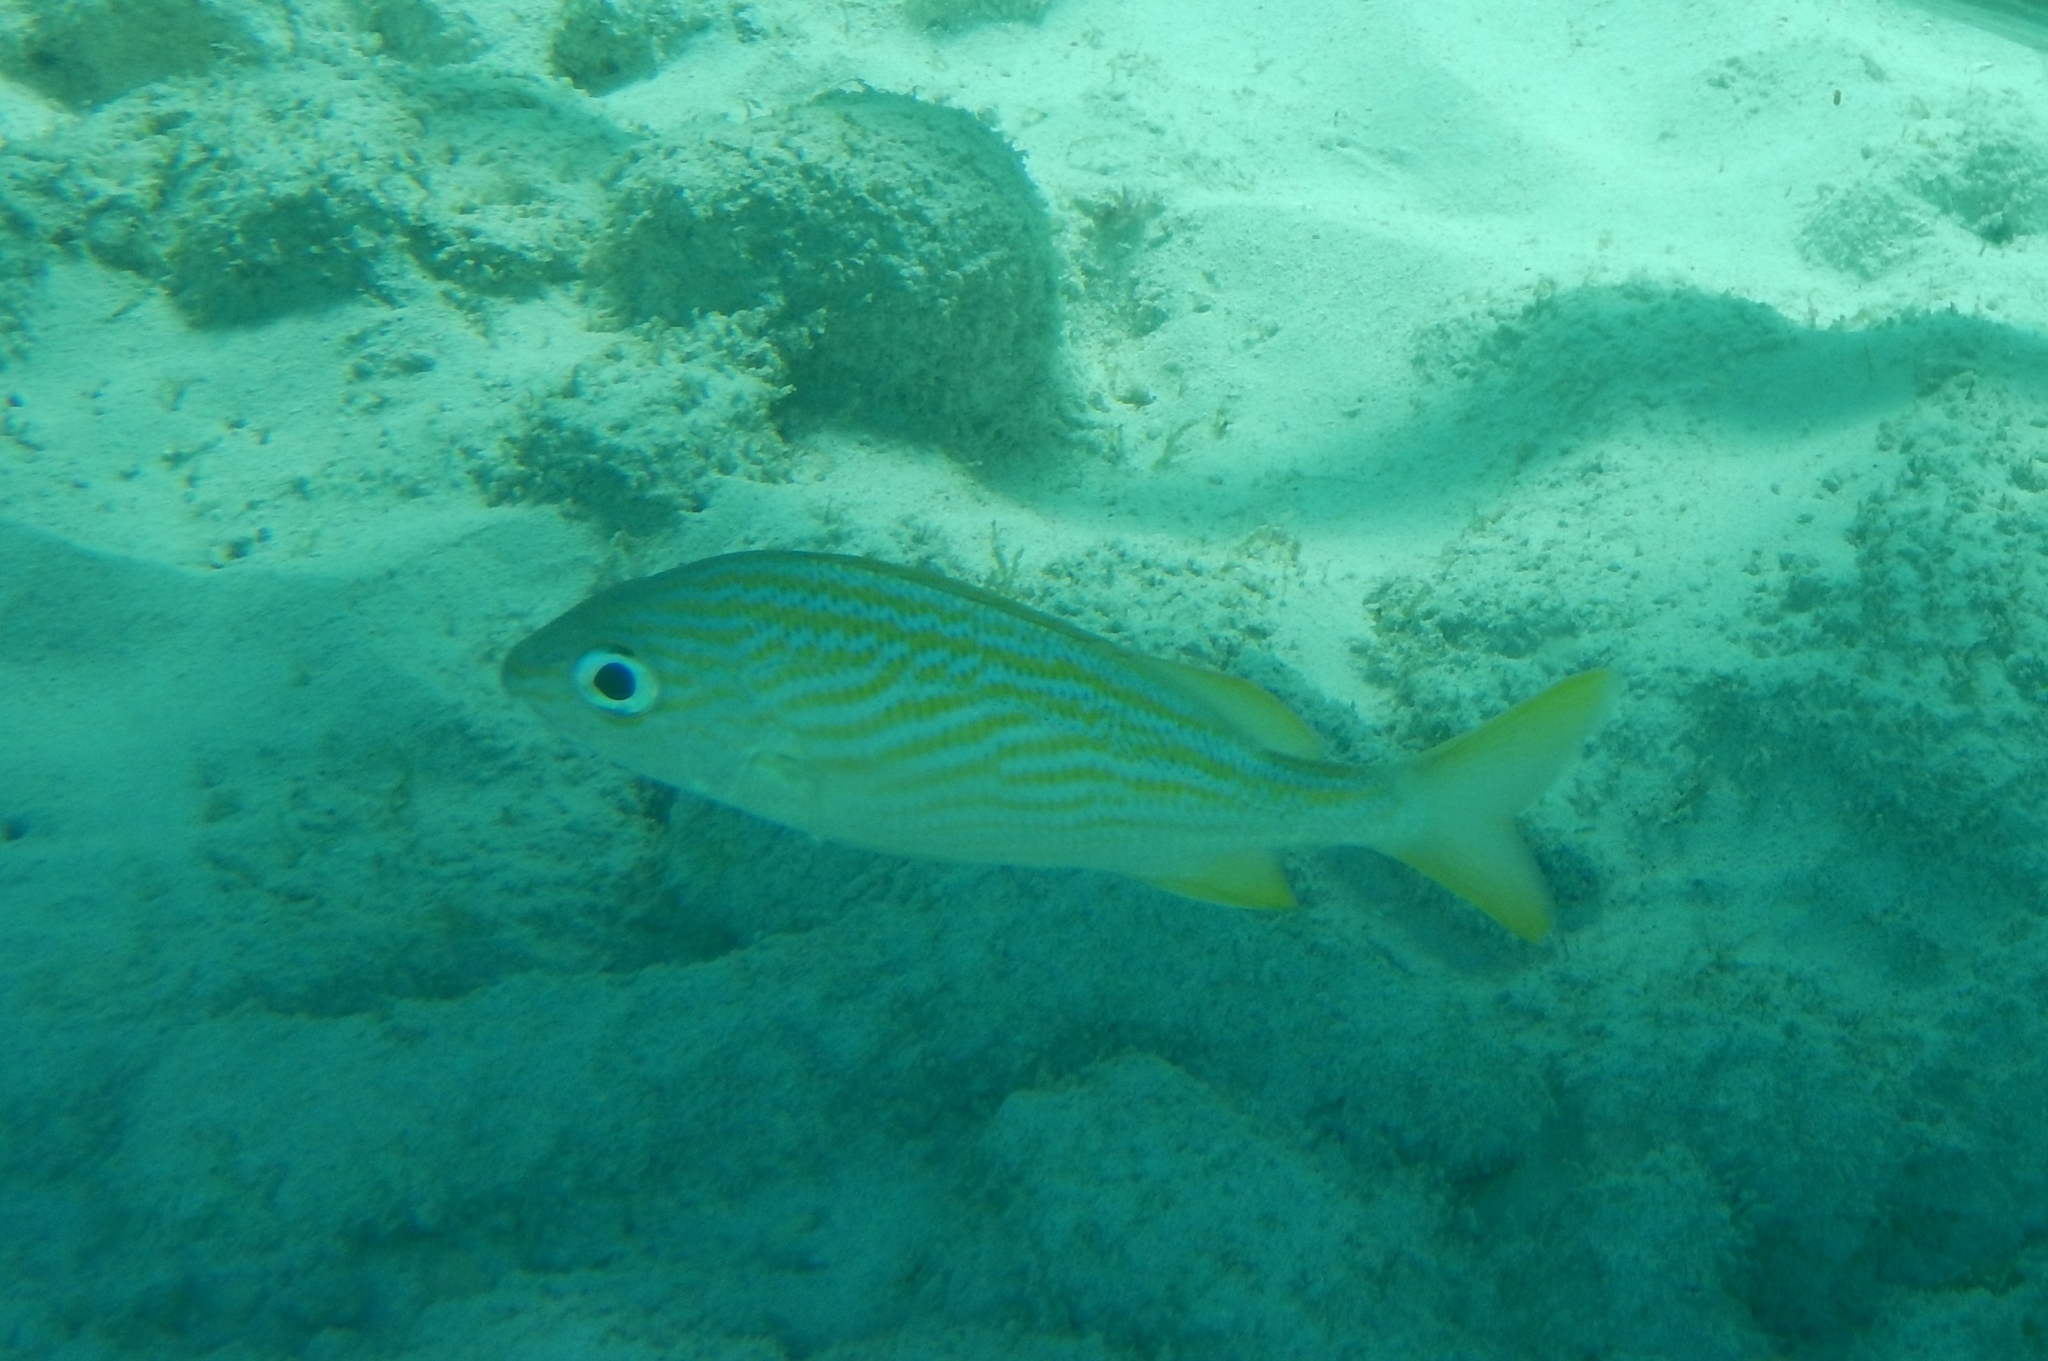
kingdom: Animalia
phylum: Chordata
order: Perciformes
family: Haemulidae
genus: Haemulon
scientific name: Haemulon flavolineatum
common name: French grunt
